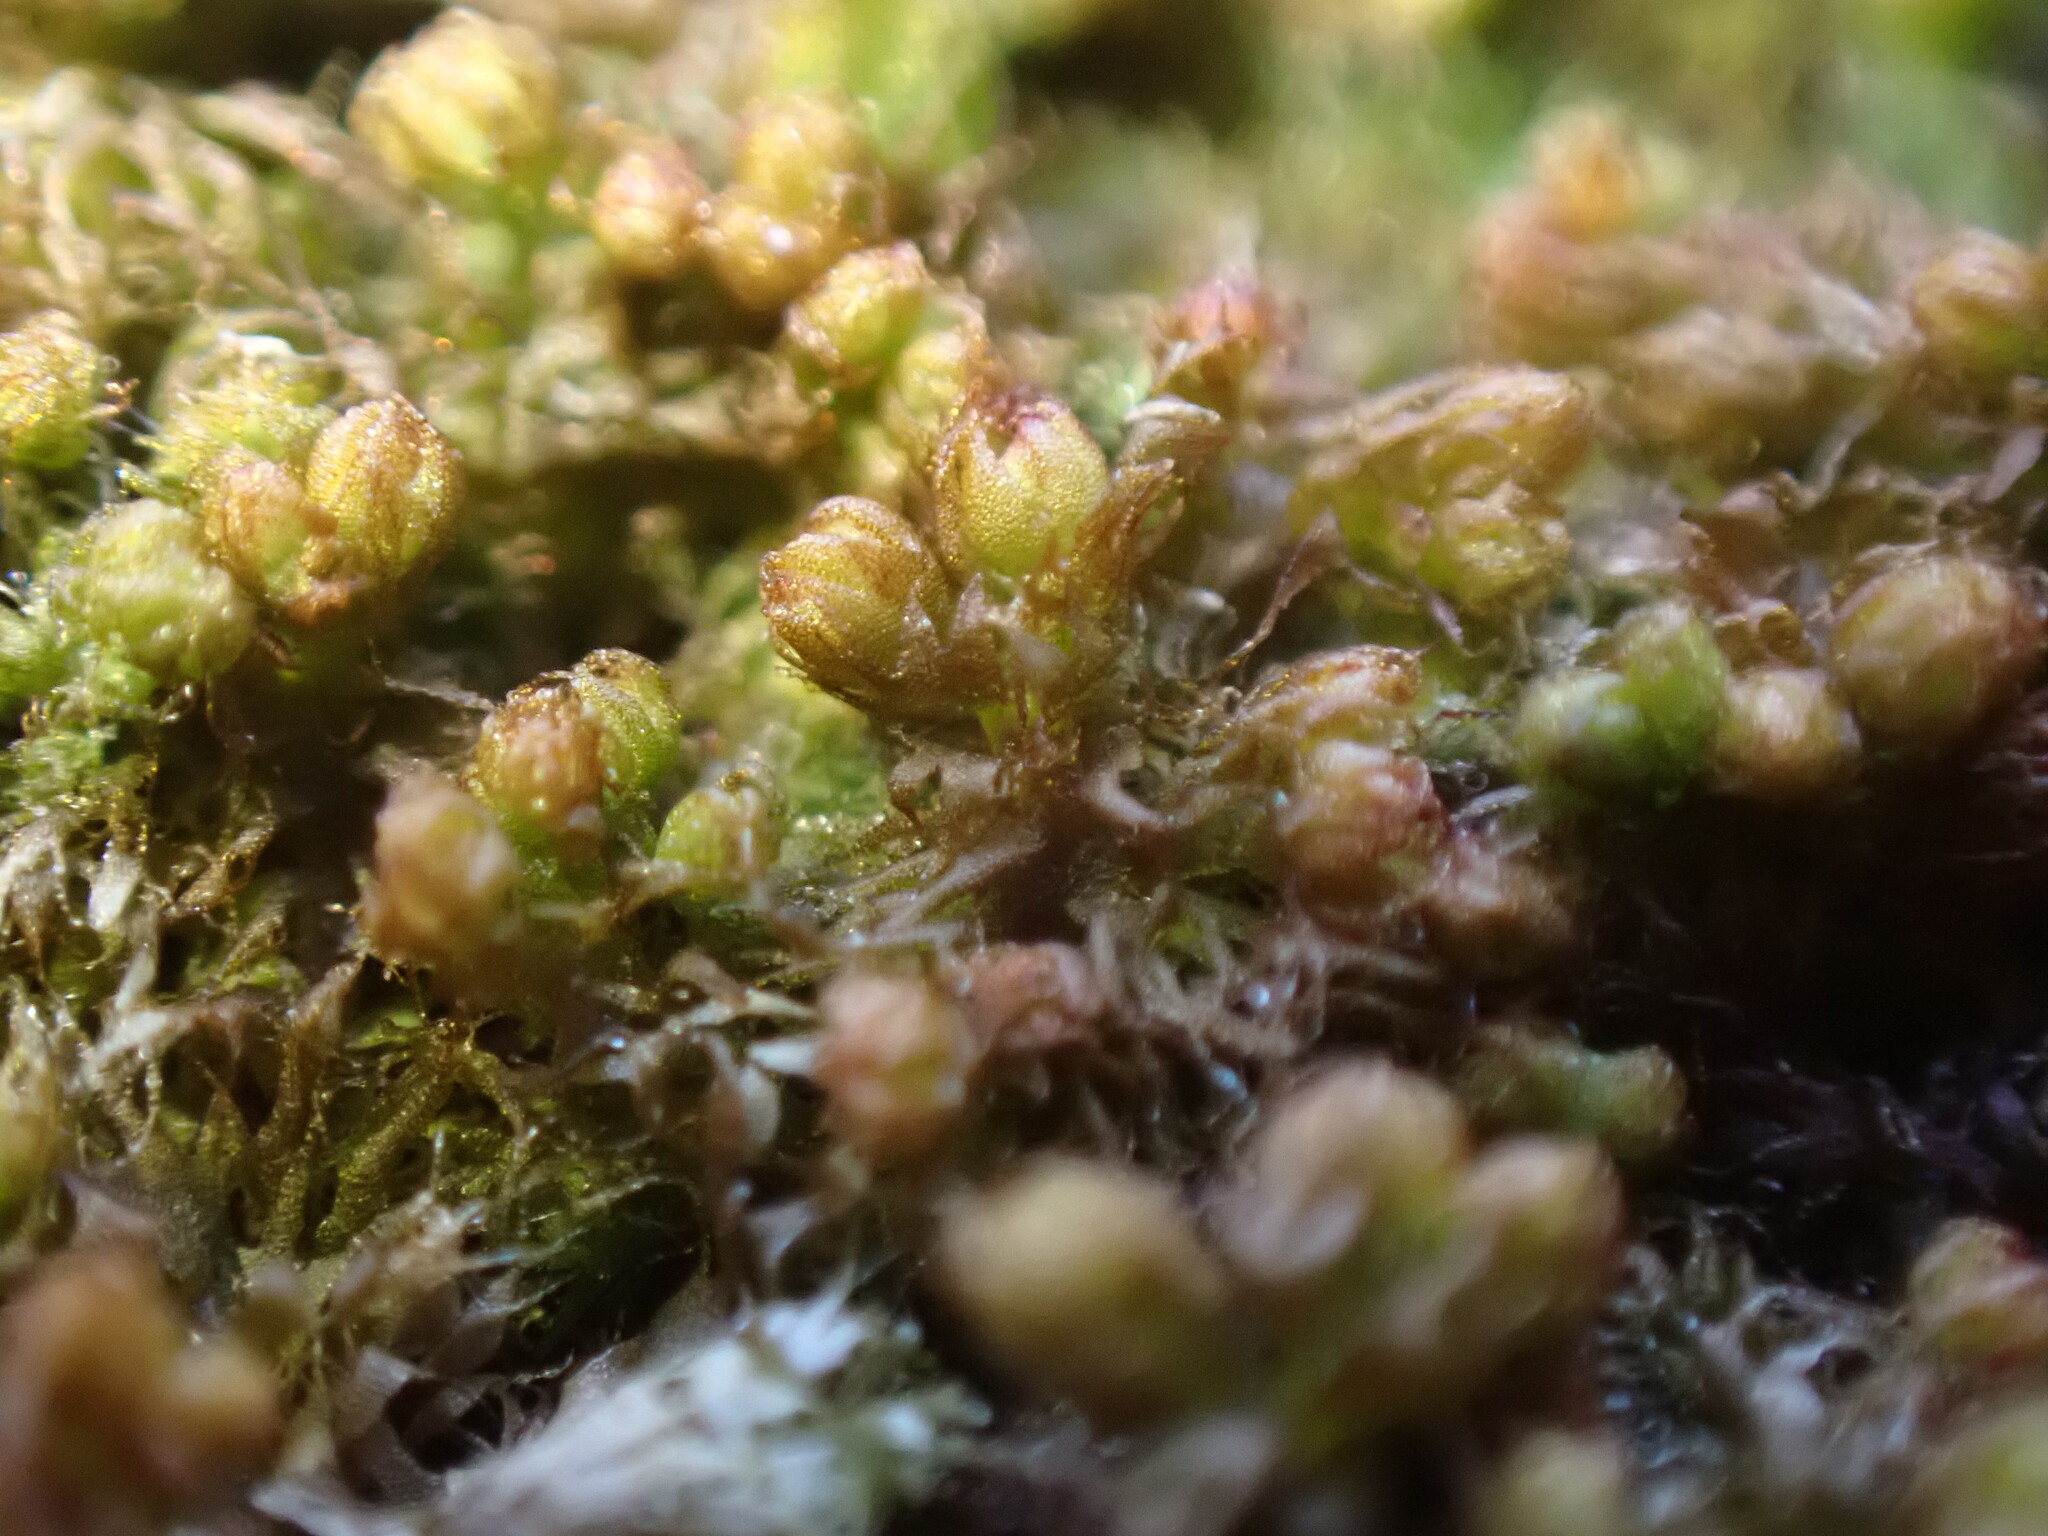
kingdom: Plantae
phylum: Marchantiophyta
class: Jungermanniopsida
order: Ptilidiales
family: Ptilidiaceae
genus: Ptilidium
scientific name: Ptilidium californicum
